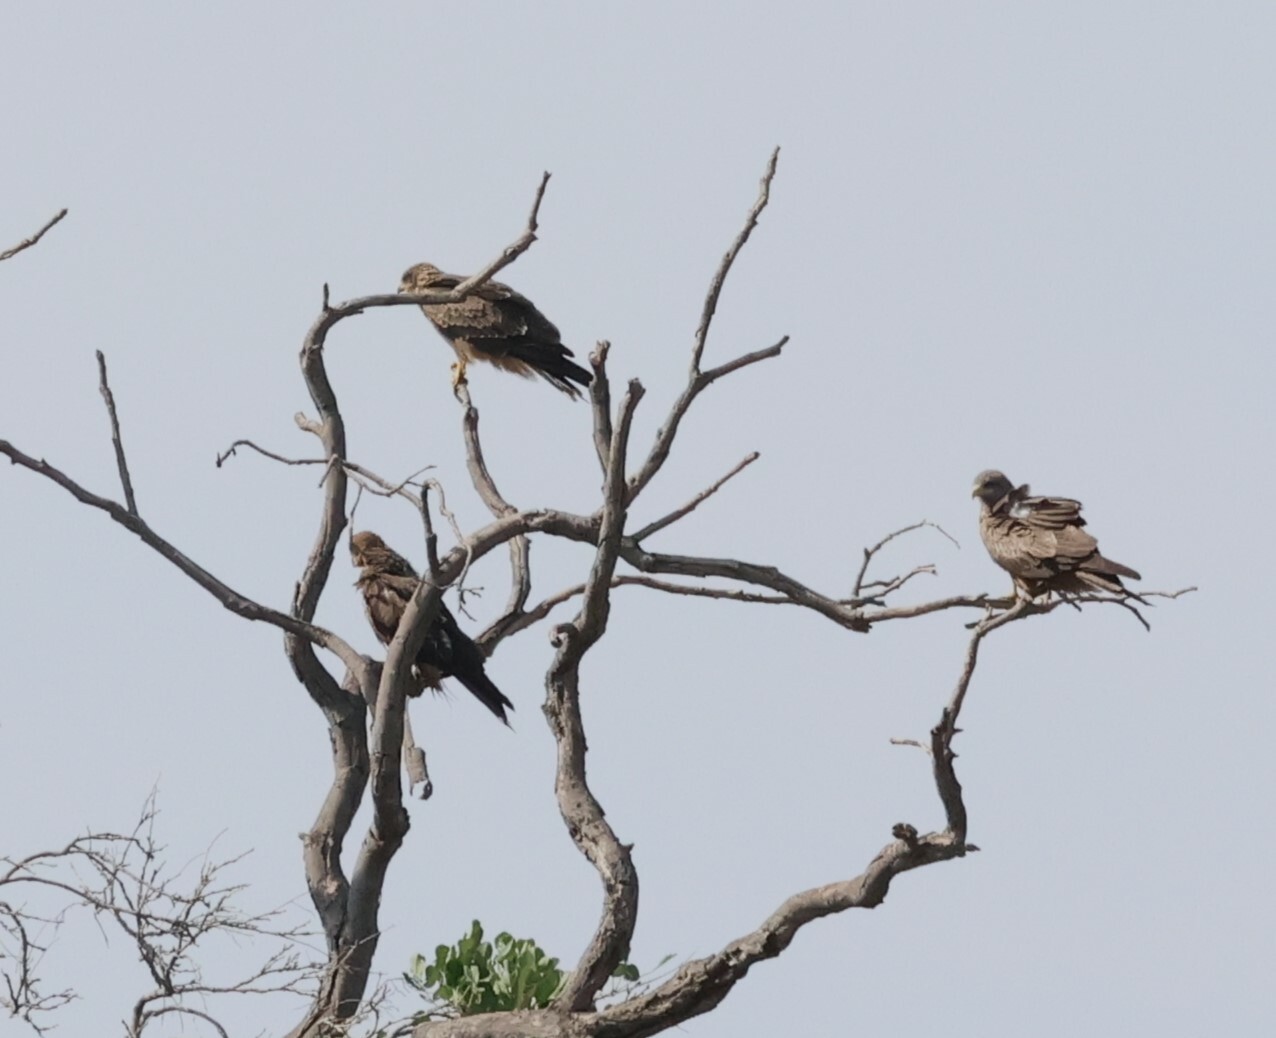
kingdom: Animalia
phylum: Chordata
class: Aves
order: Accipitriformes
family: Accipitridae
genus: Milvus
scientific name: Milvus migrans
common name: Black kite
